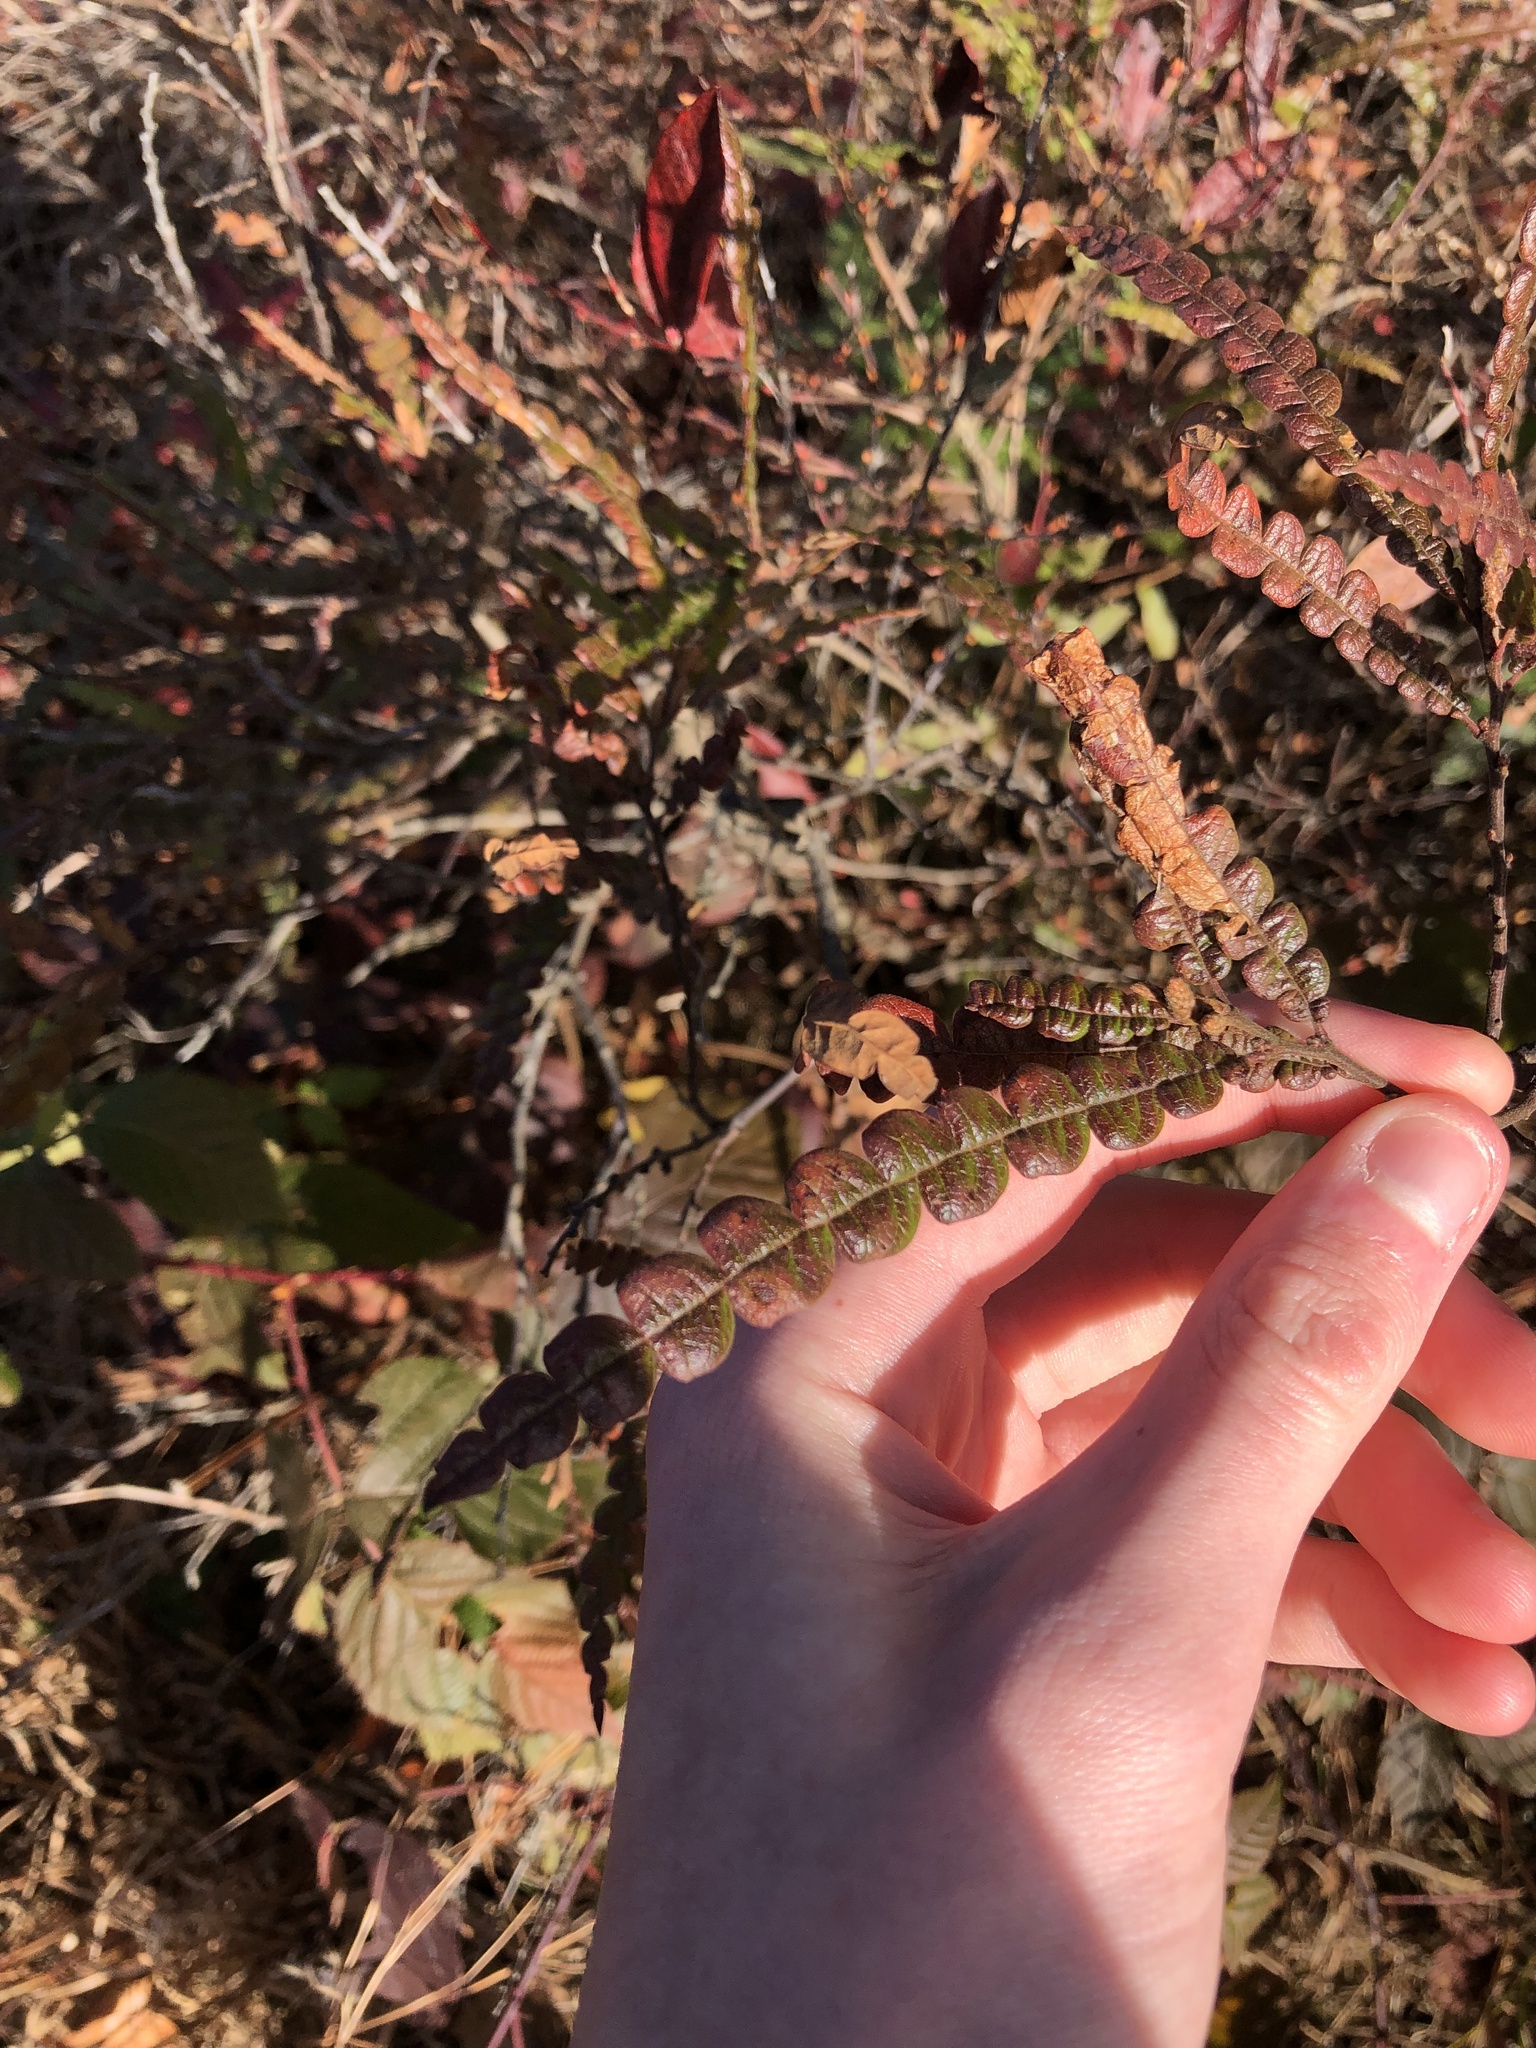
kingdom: Plantae
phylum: Tracheophyta
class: Magnoliopsida
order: Fagales
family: Myricaceae
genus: Comptonia
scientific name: Comptonia peregrina
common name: Sweet-fern
